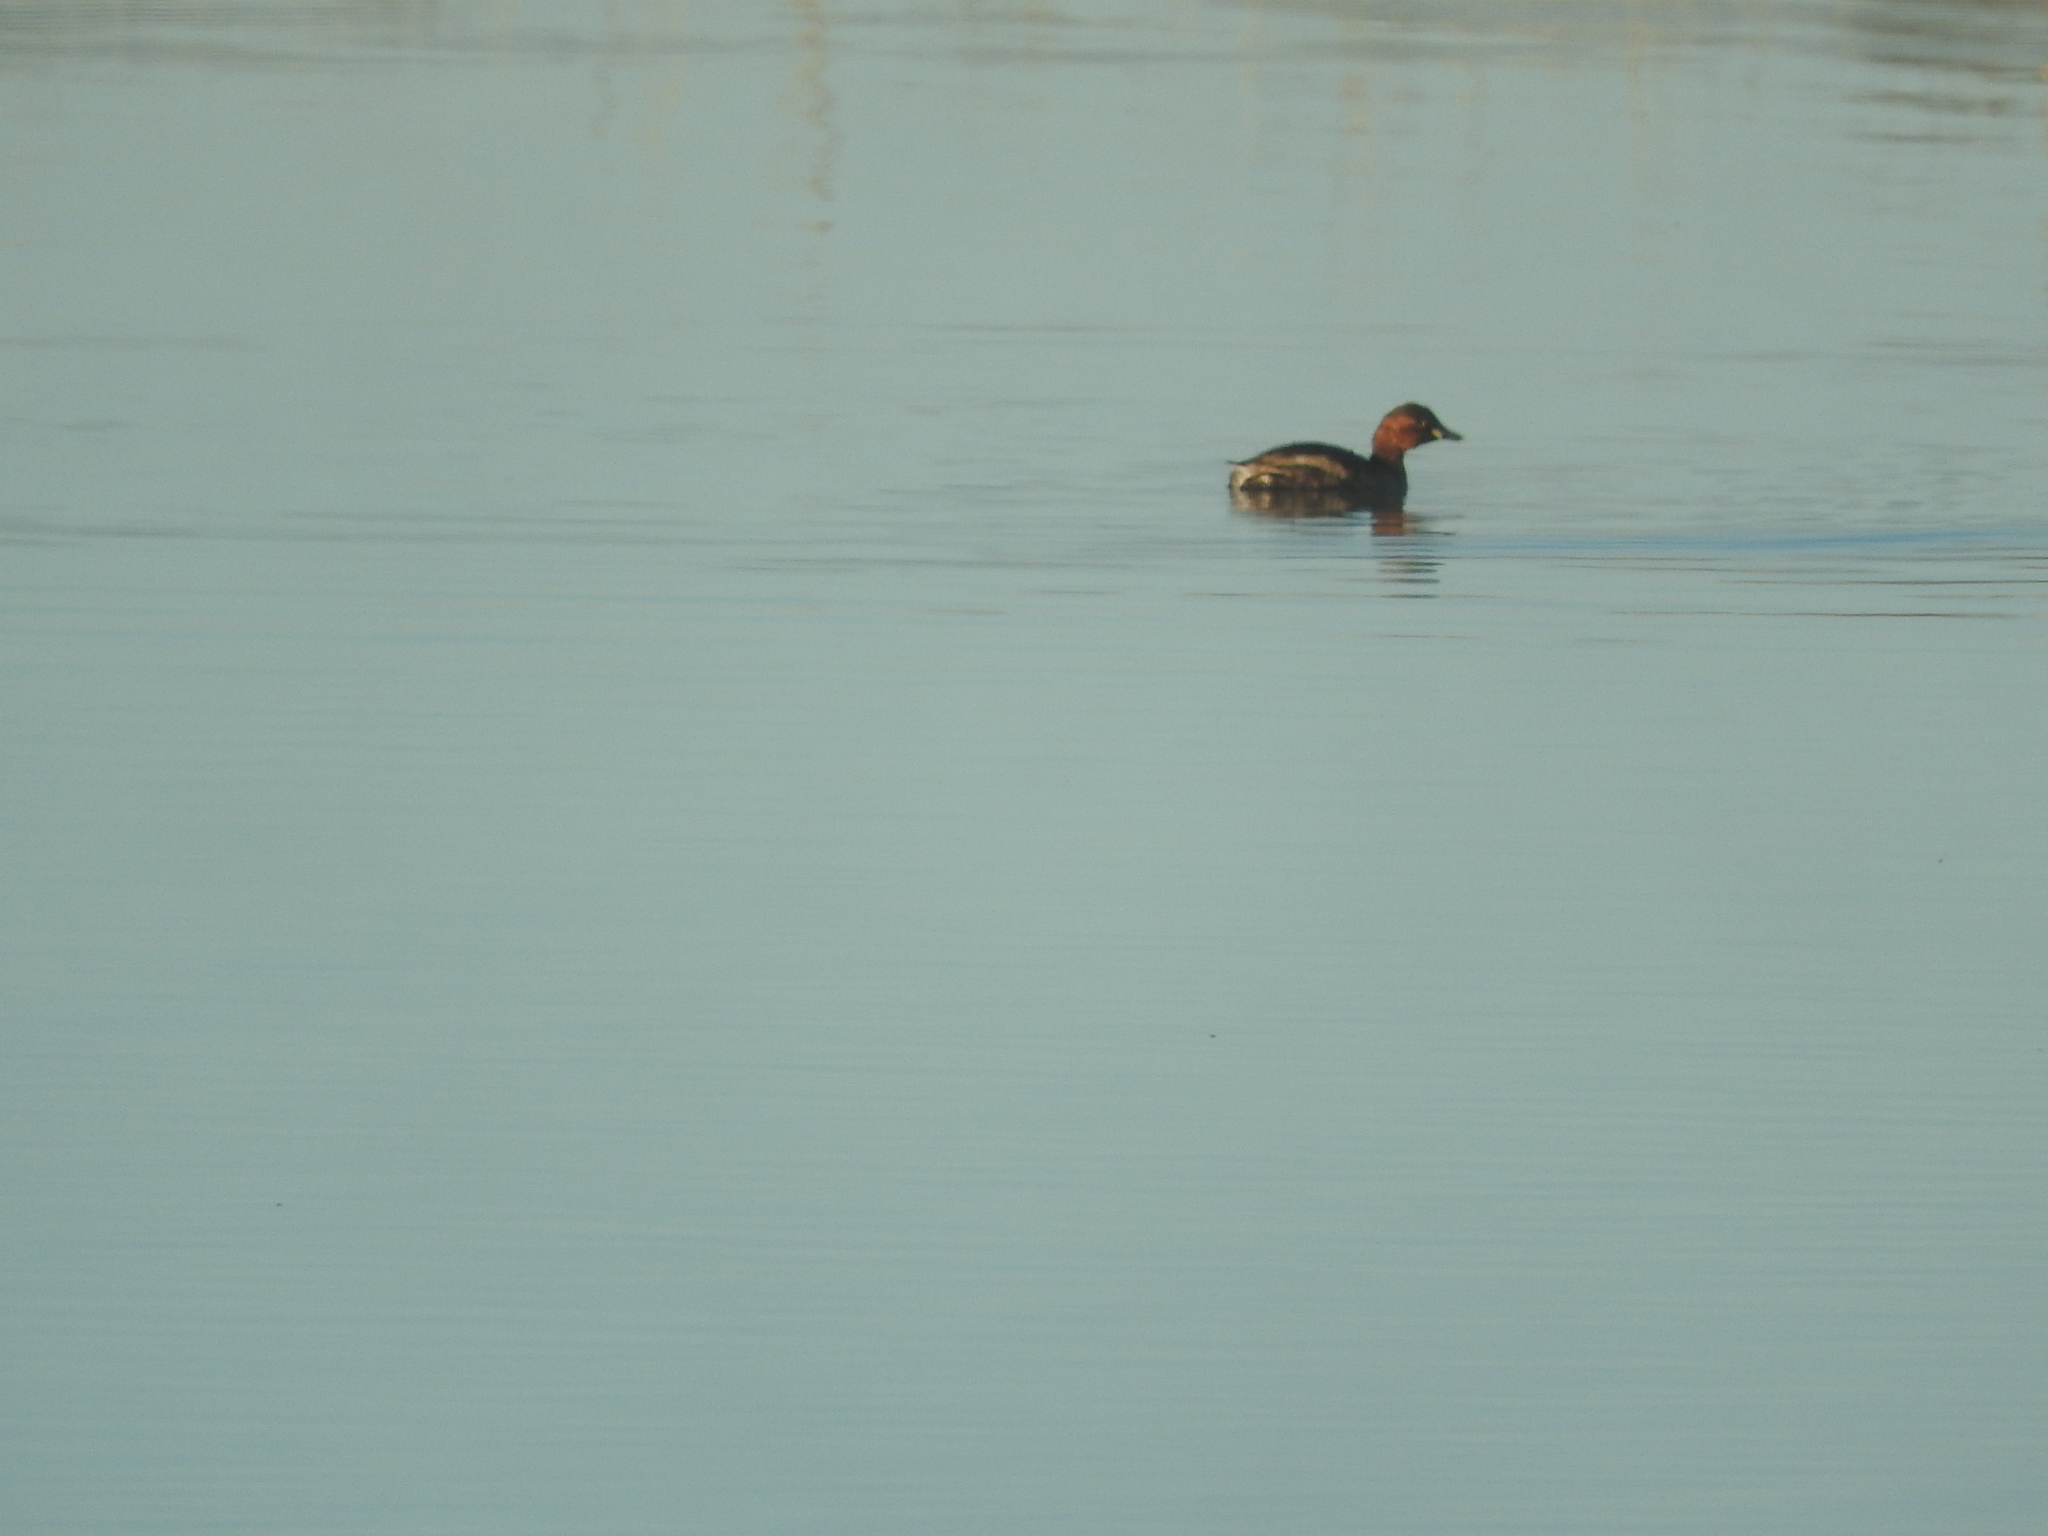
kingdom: Animalia
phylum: Chordata
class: Aves
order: Podicipediformes
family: Podicipedidae
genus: Tachybaptus
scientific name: Tachybaptus ruficollis
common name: Little grebe
